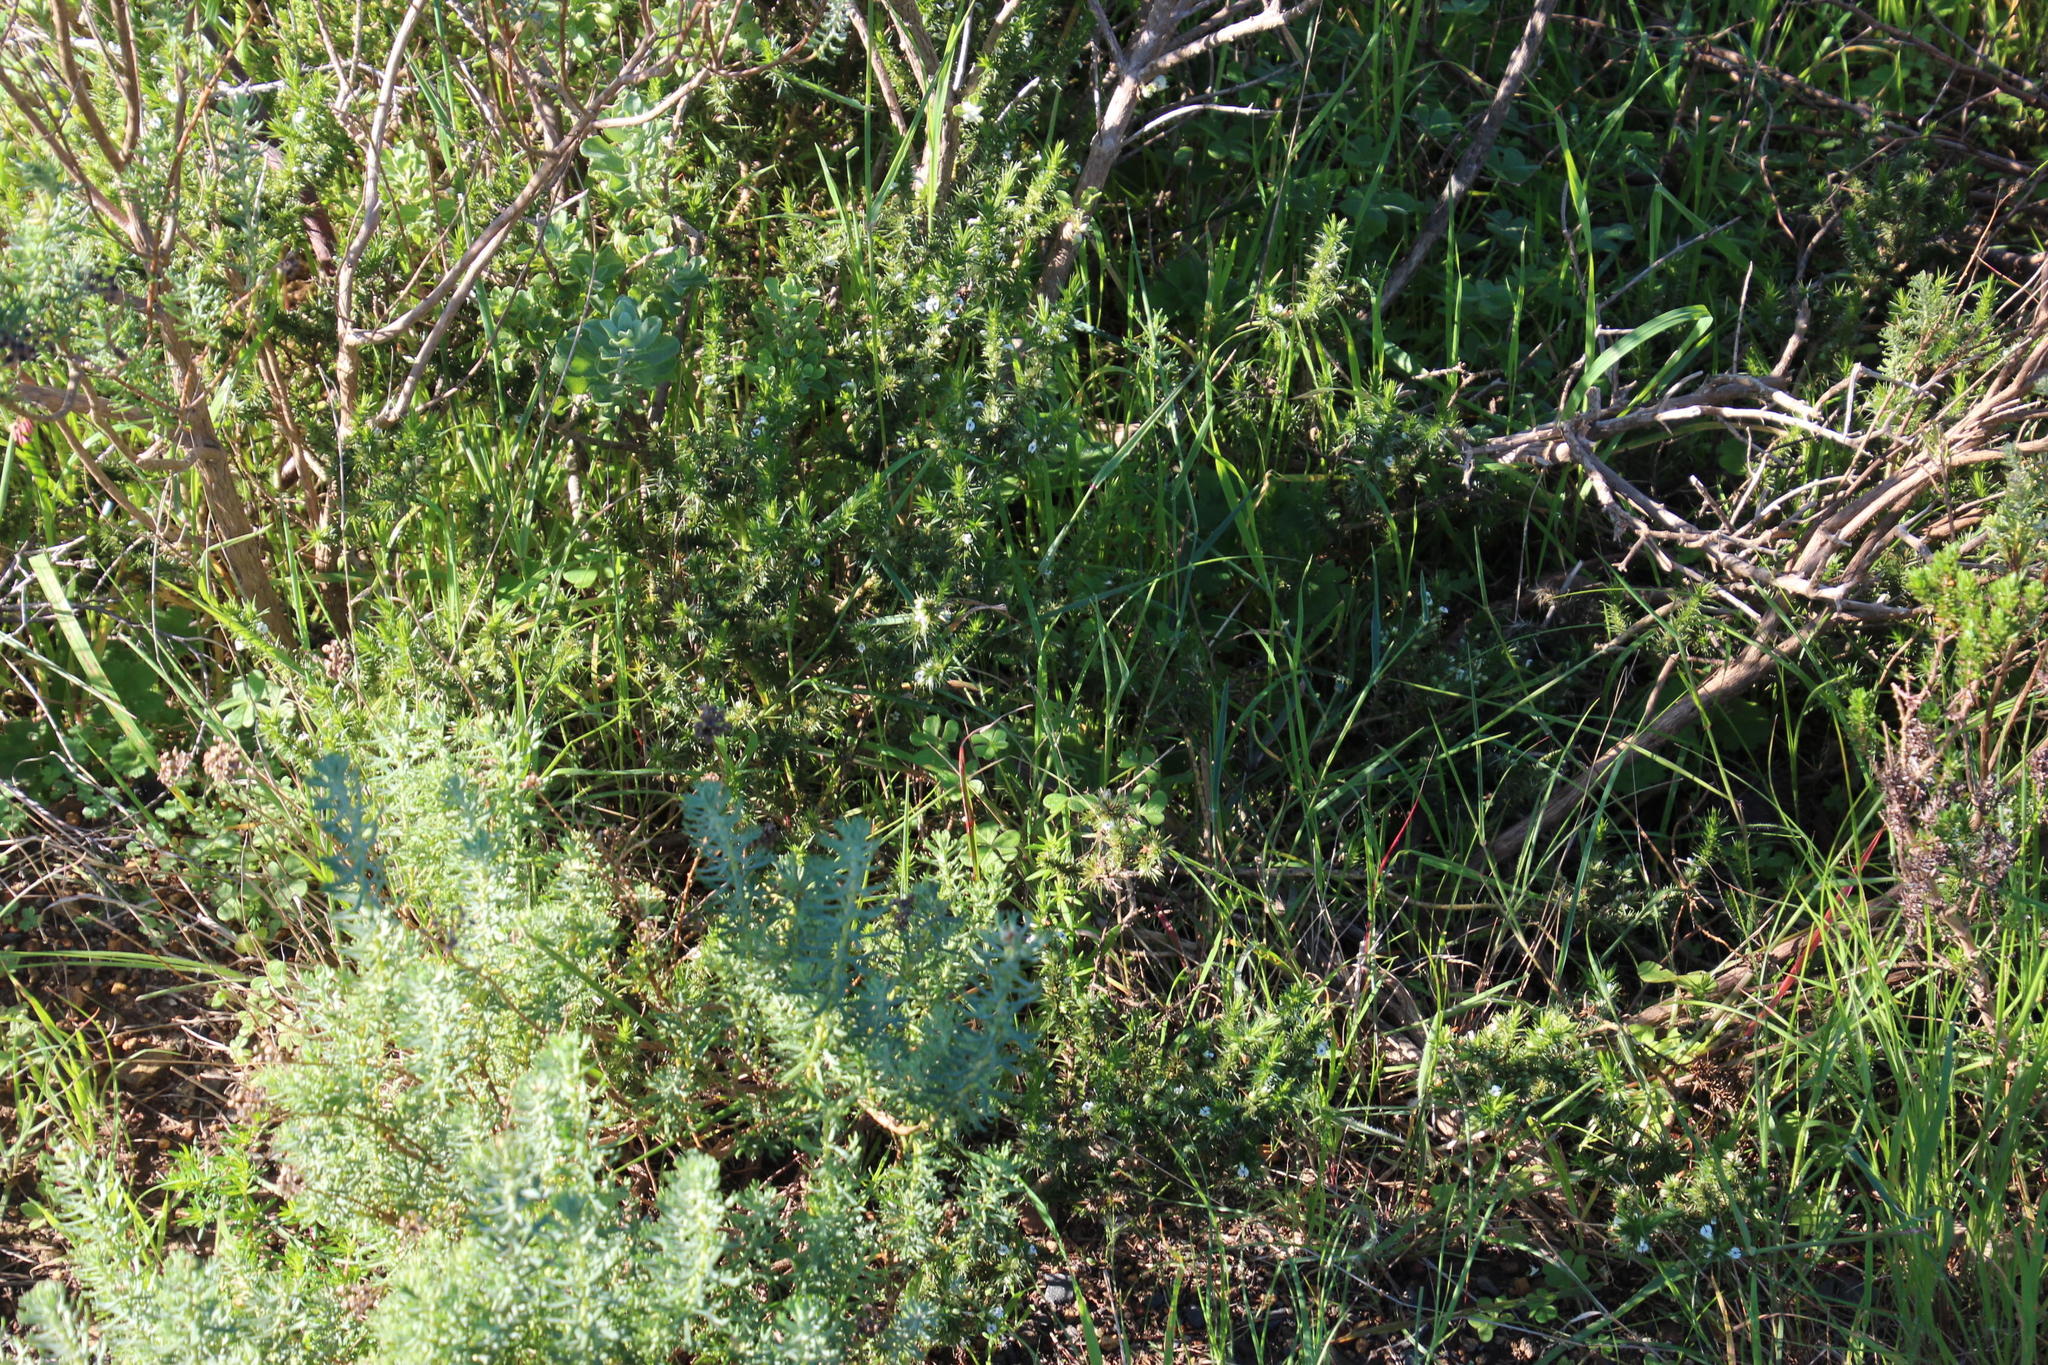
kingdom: Plantae
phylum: Tracheophyta
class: Magnoliopsida
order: Fabales
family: Polygalaceae
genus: Muraltia
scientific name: Muraltia ononidifolia
